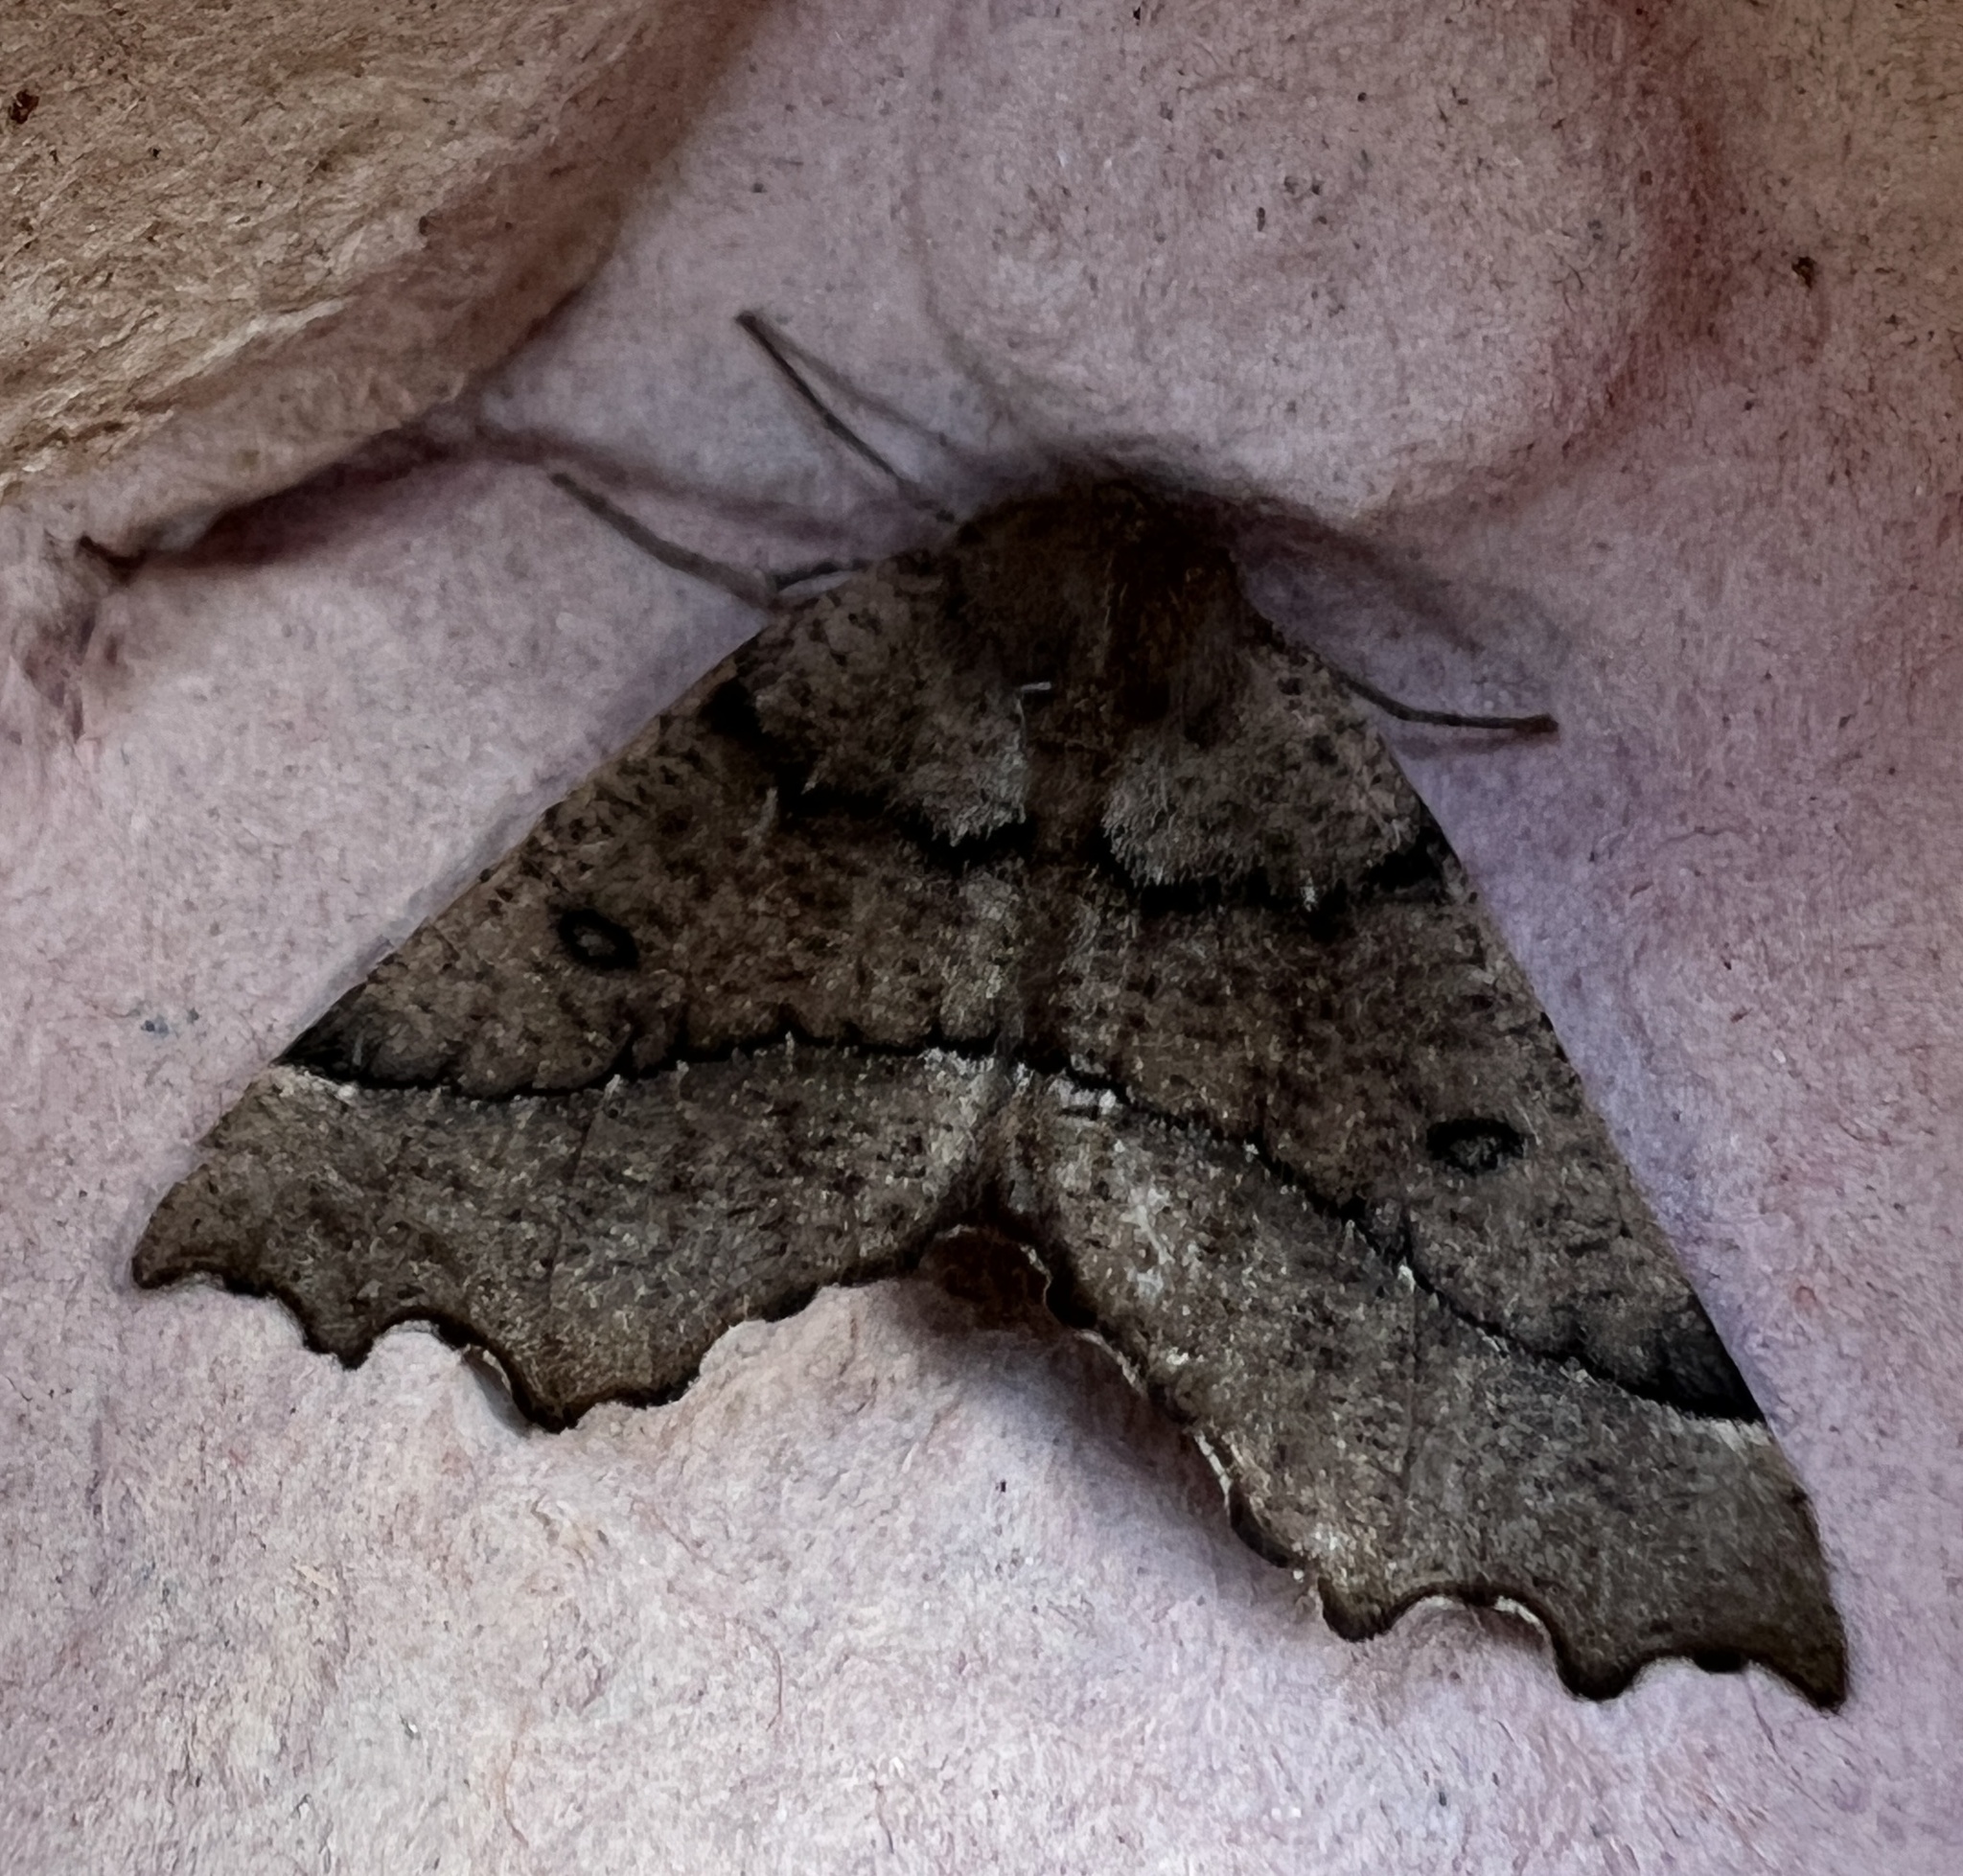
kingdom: Animalia
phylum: Arthropoda
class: Insecta
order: Lepidoptera
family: Geometridae
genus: Odontopera
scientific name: Odontopera bidentata
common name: Scalloped hazel
